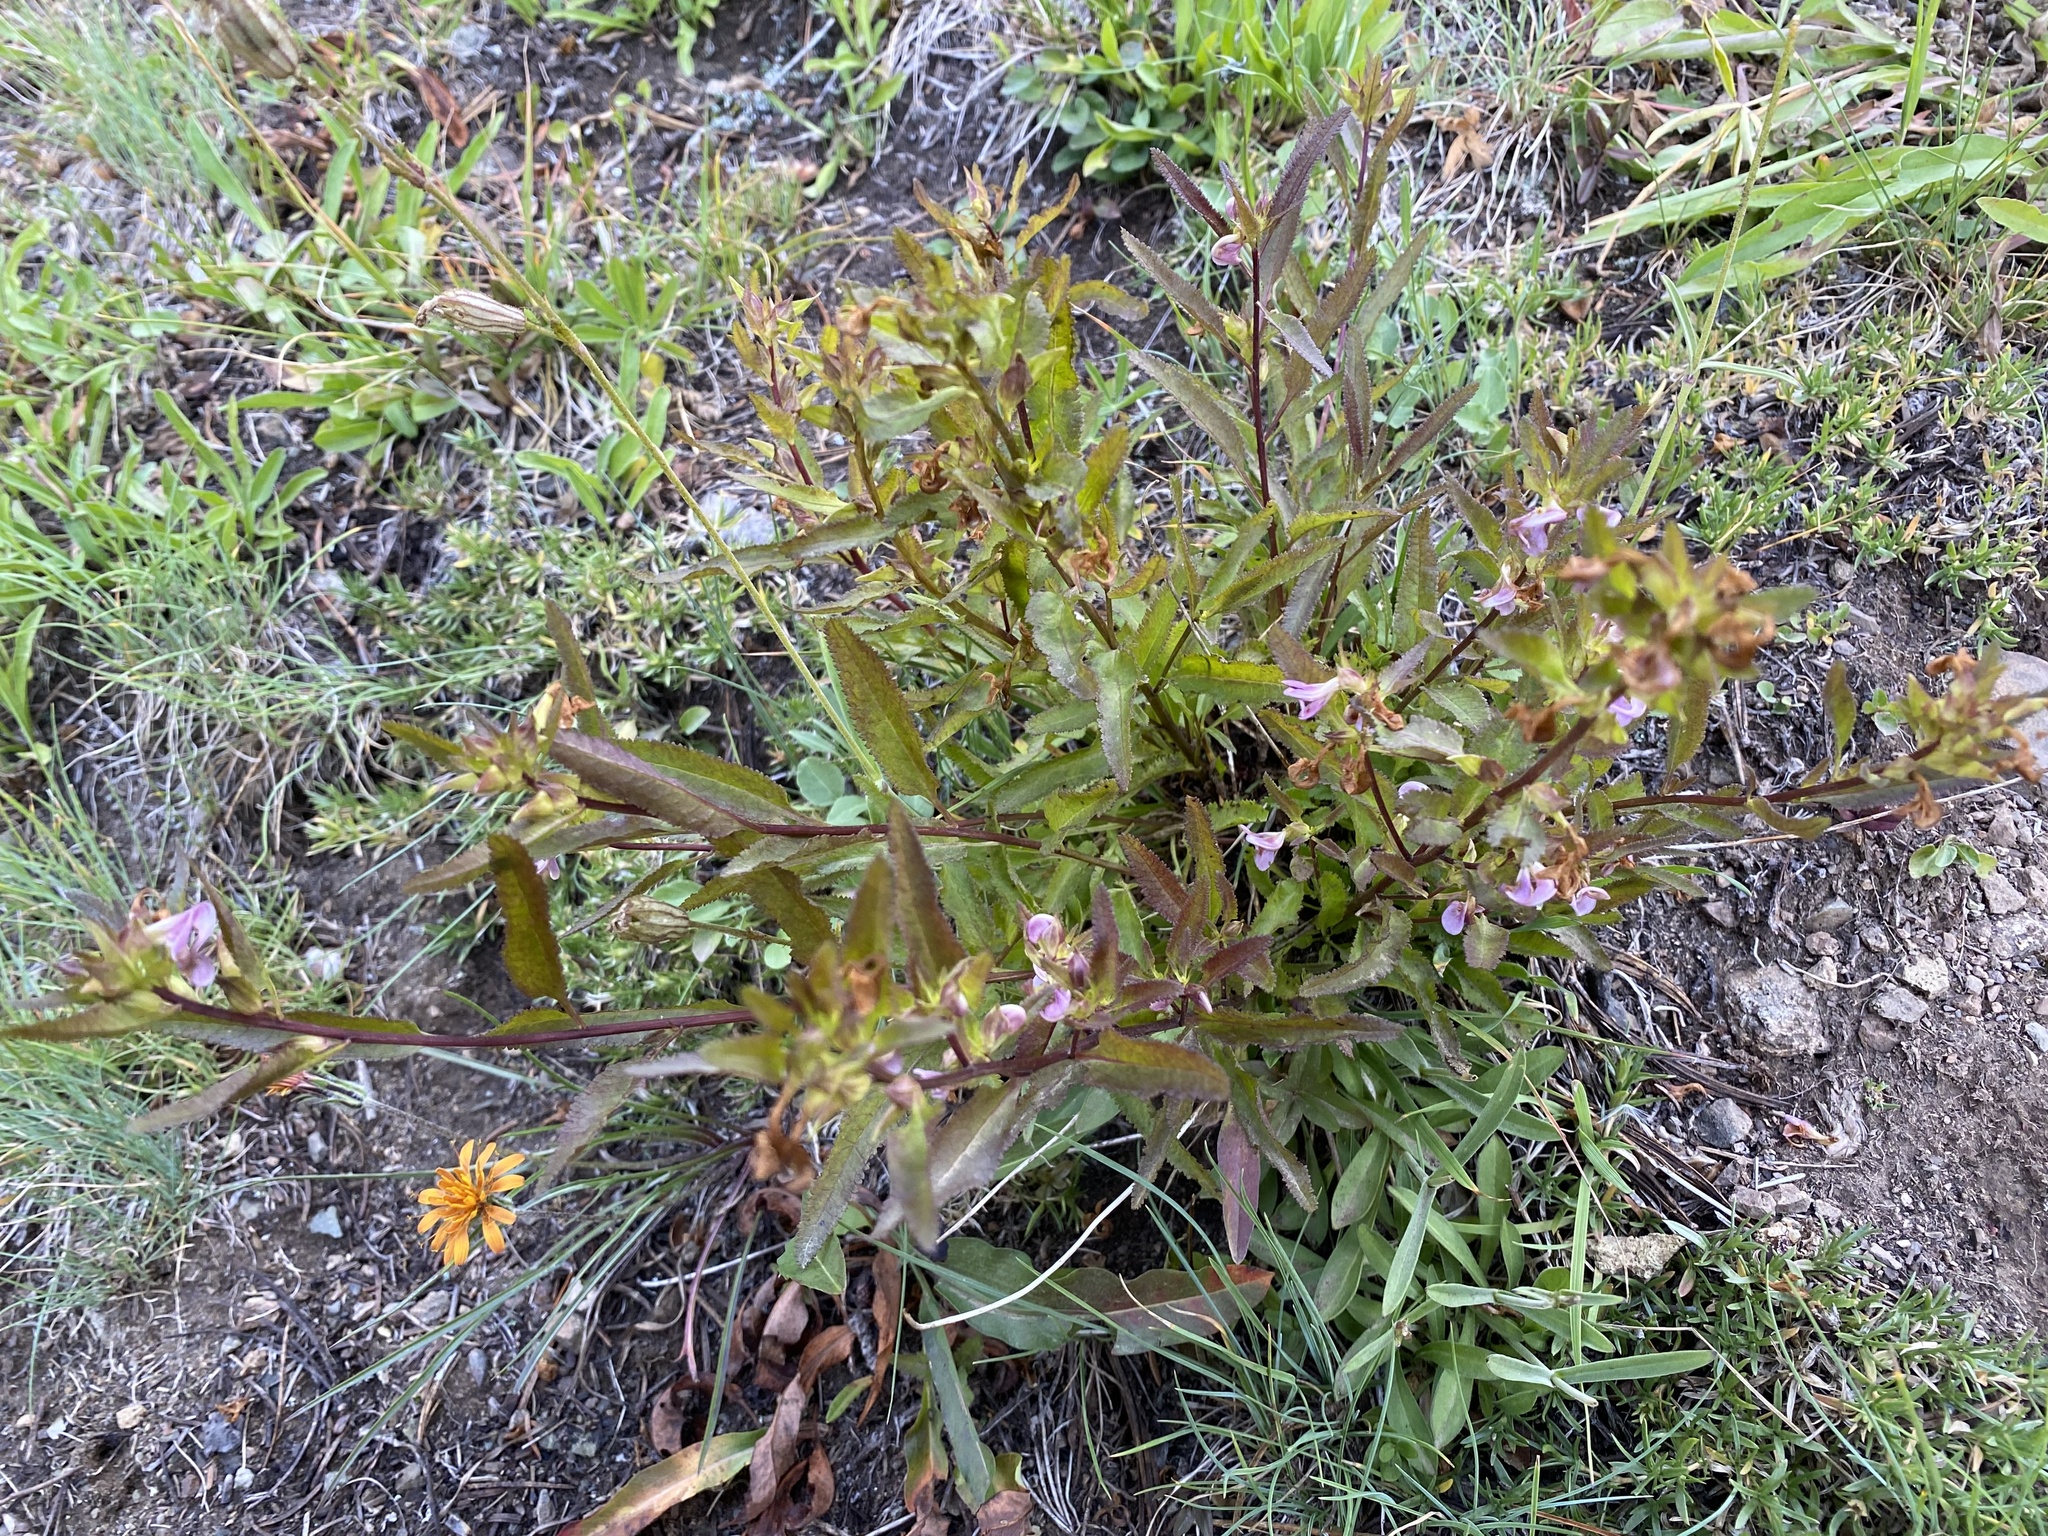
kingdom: Plantae
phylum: Tracheophyta
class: Magnoliopsida
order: Lamiales
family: Orobanchaceae
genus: Pedicularis
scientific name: Pedicularis racemosa
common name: Leafy lousewort
